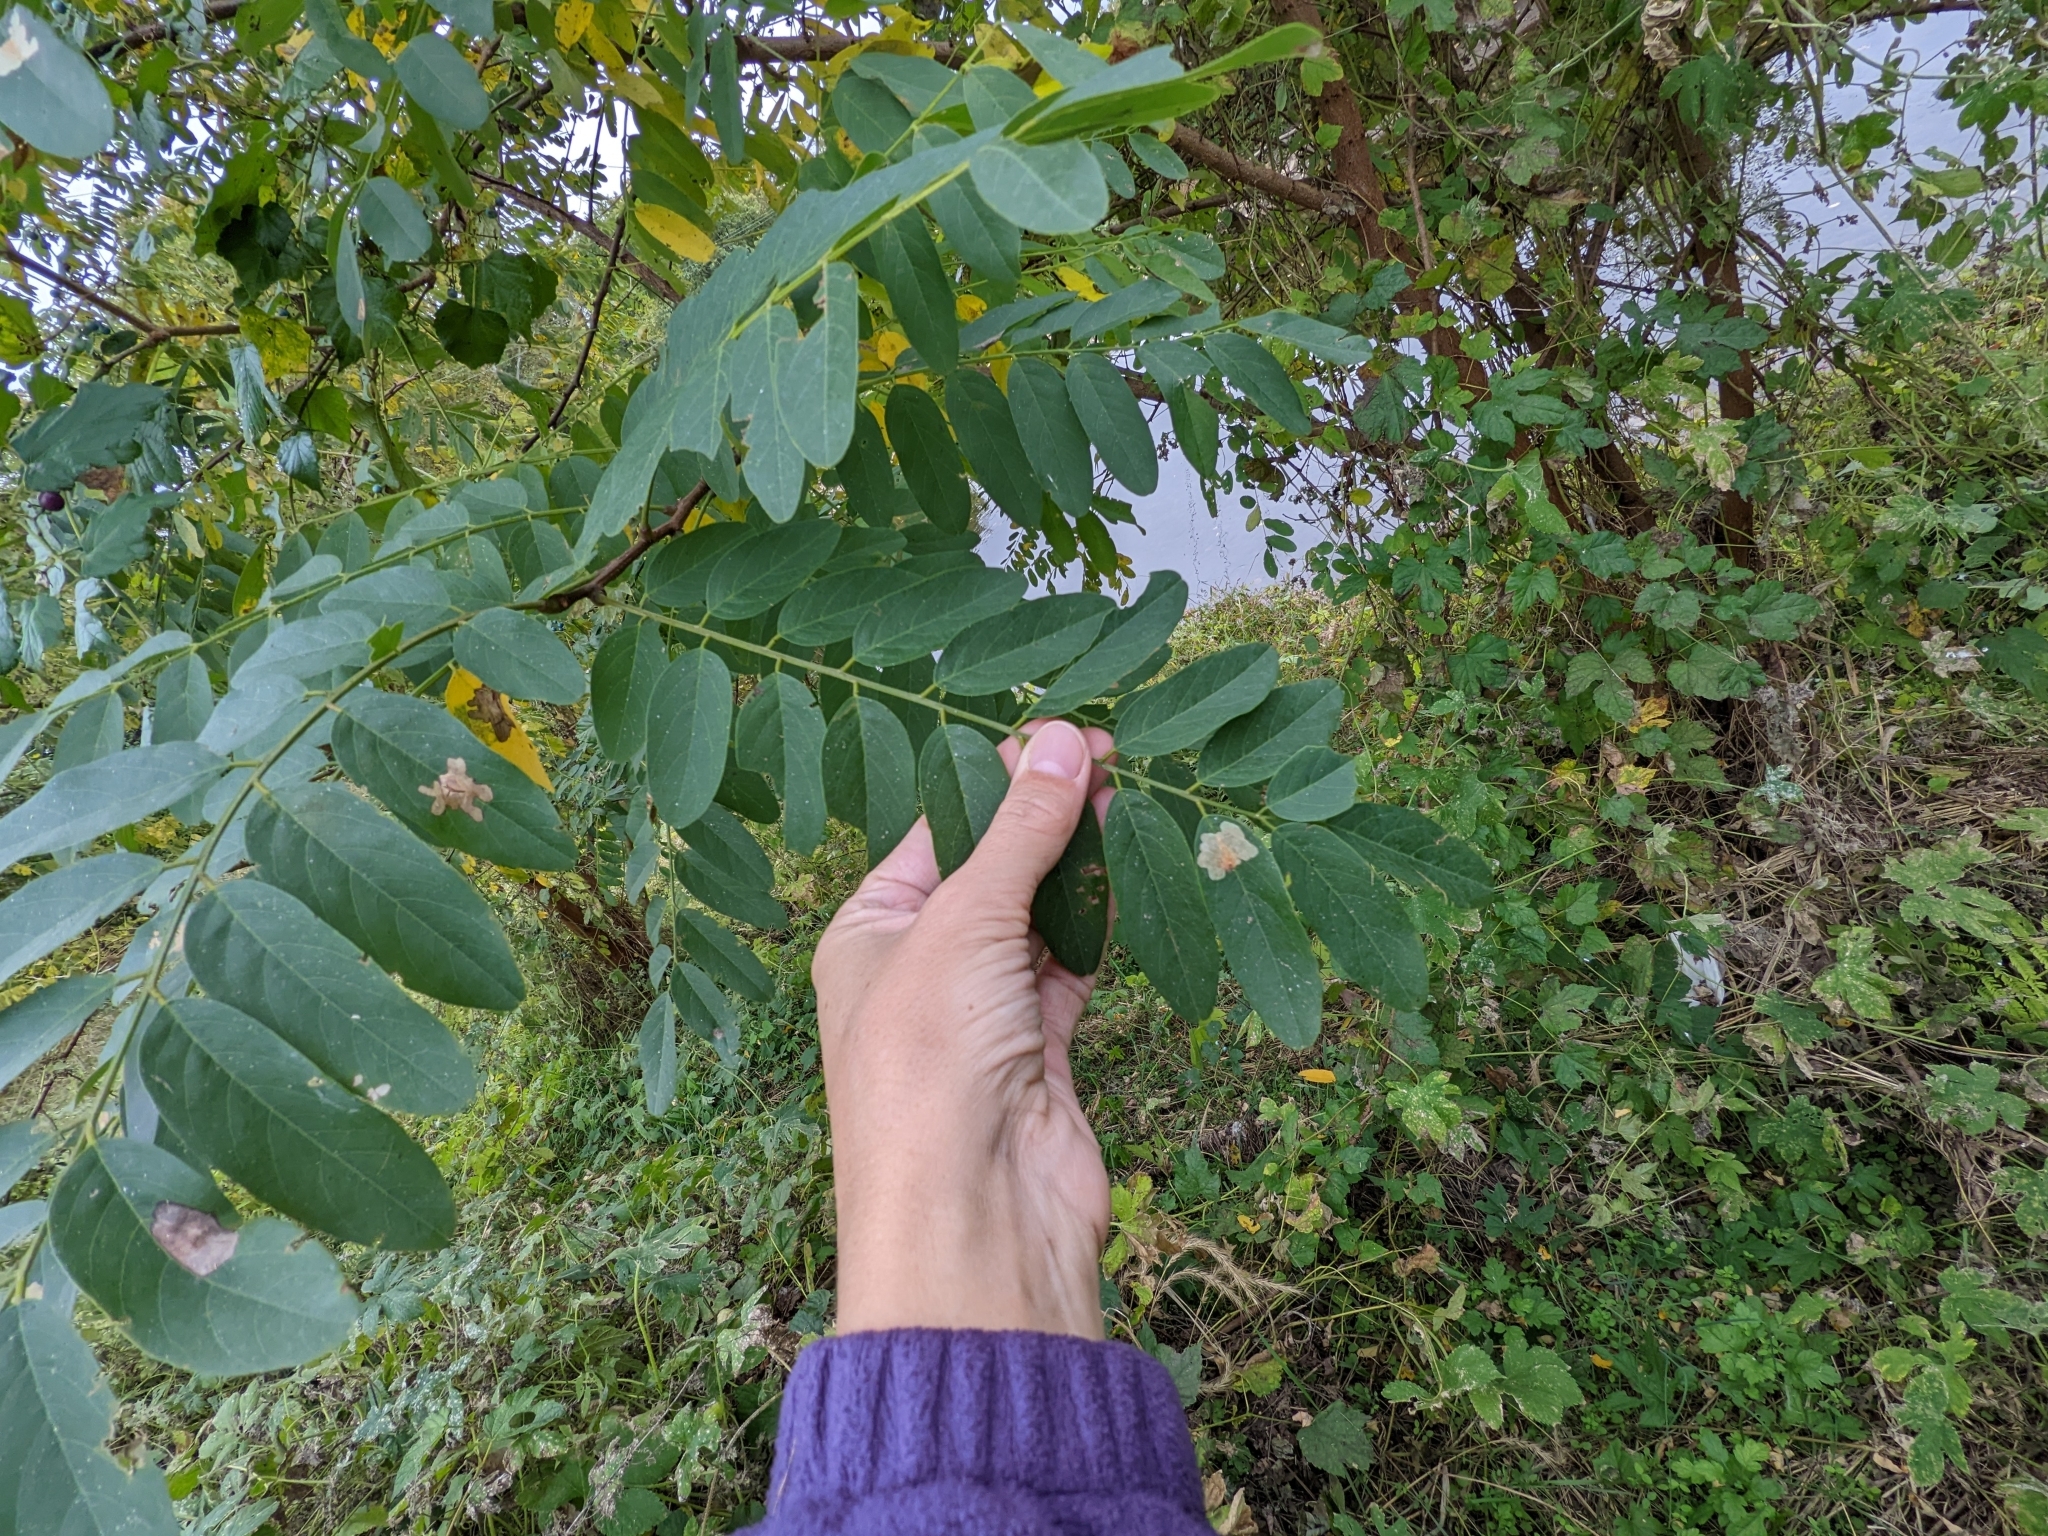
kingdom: Plantae
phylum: Tracheophyta
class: Magnoliopsida
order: Fabales
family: Fabaceae
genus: Robinia
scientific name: Robinia pseudoacacia
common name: Black locust
